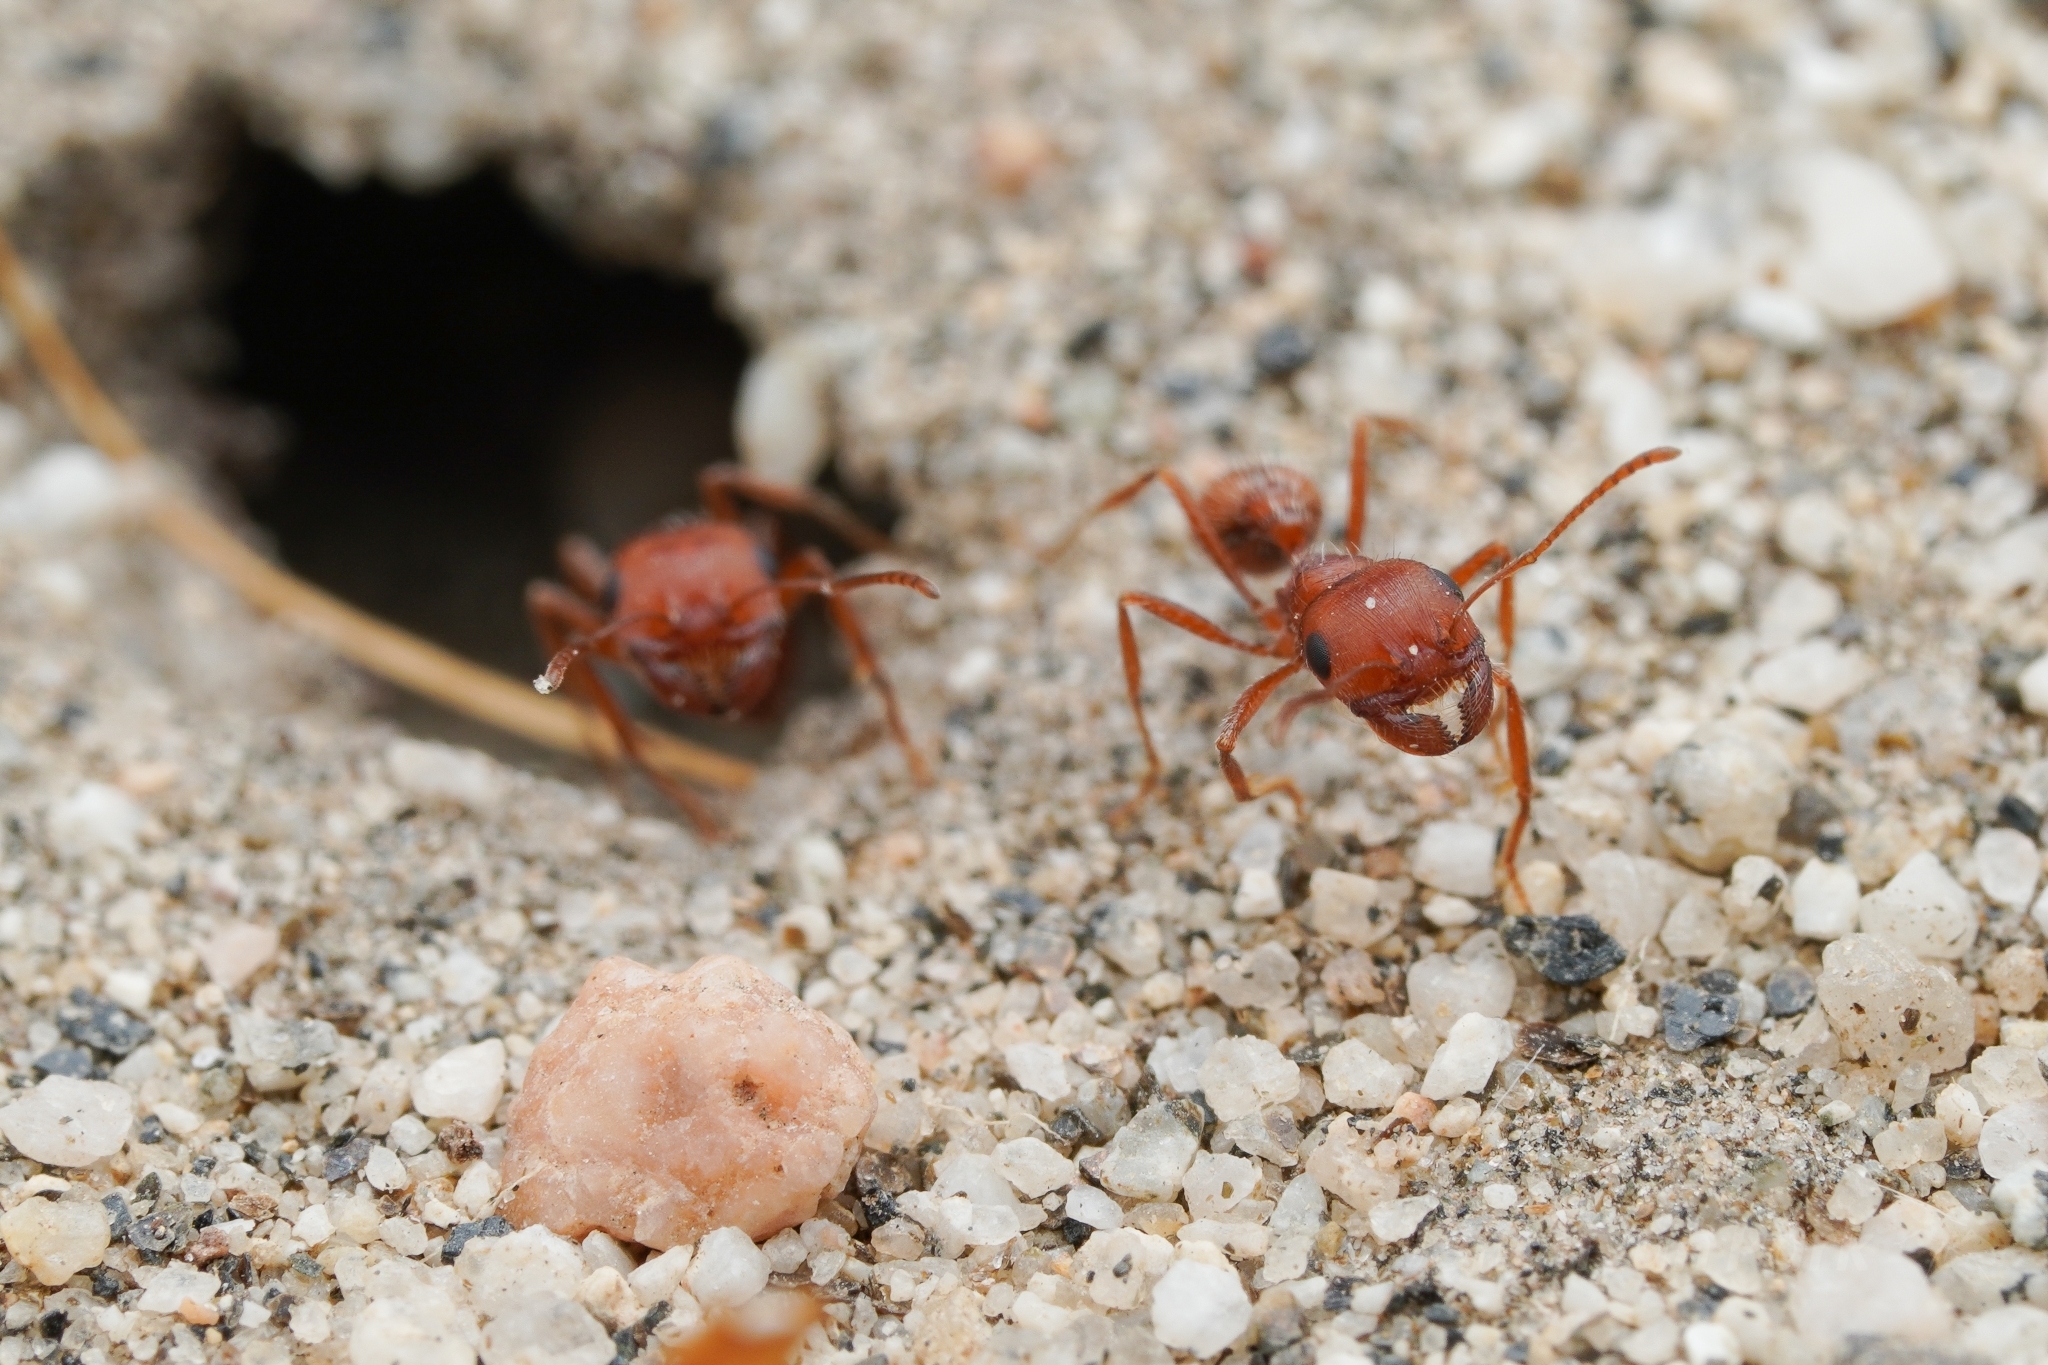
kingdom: Animalia
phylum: Arthropoda
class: Insecta
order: Hymenoptera
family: Formicidae
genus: Pogonomyrmex
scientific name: Pogonomyrmex magnacanthus
